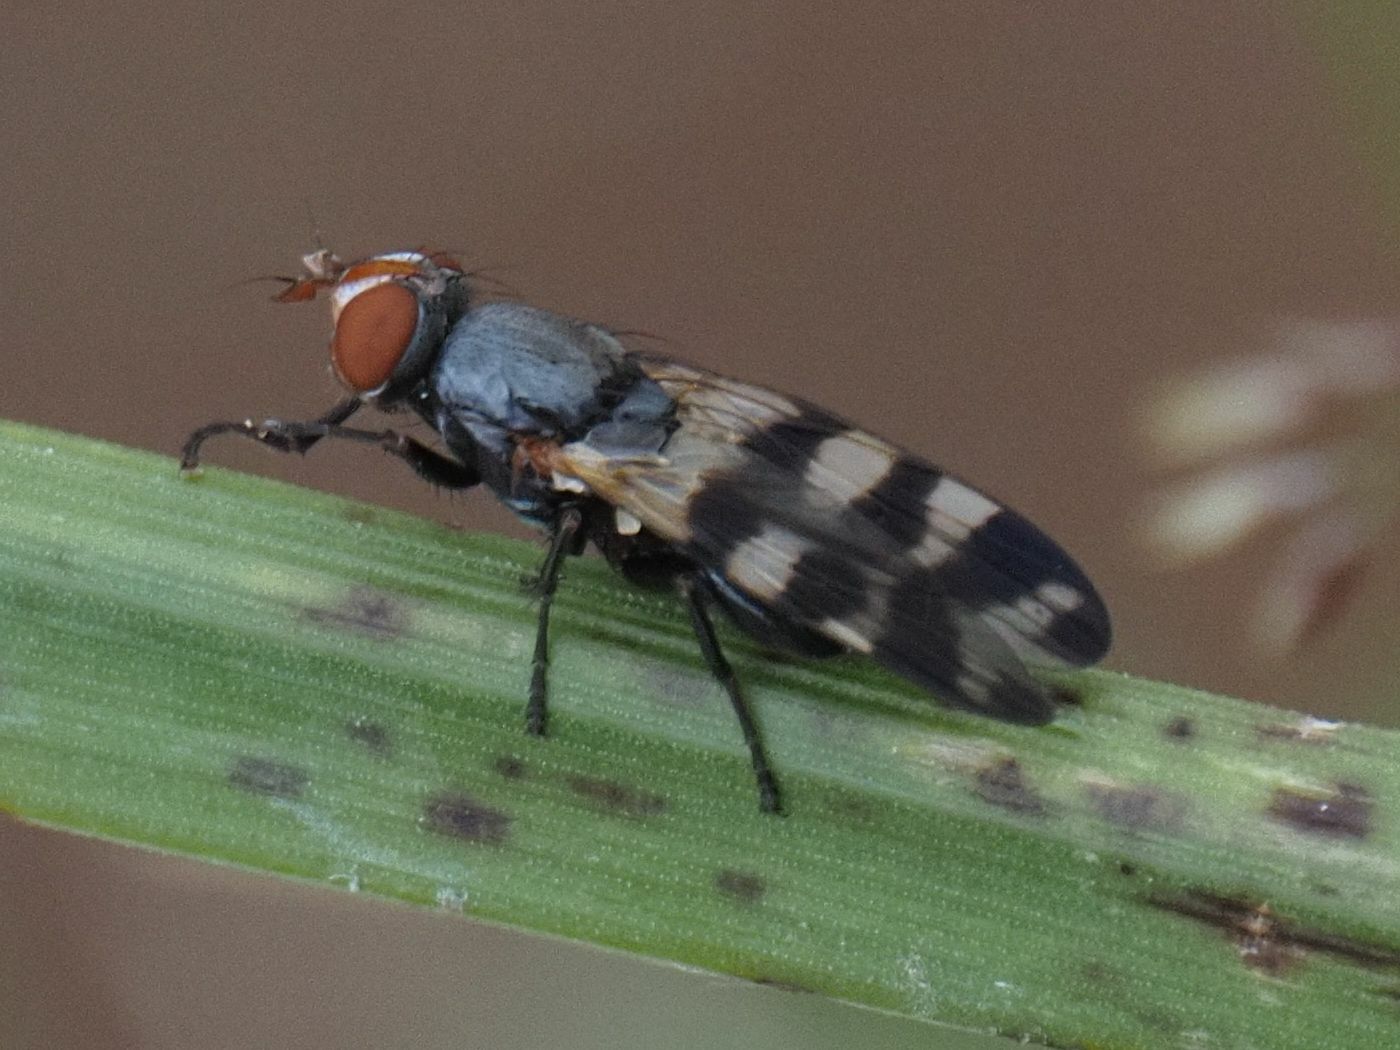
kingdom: Animalia
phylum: Arthropoda
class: Insecta
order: Diptera
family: Ulidiidae
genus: Ceroxys
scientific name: Ceroxys urticae
